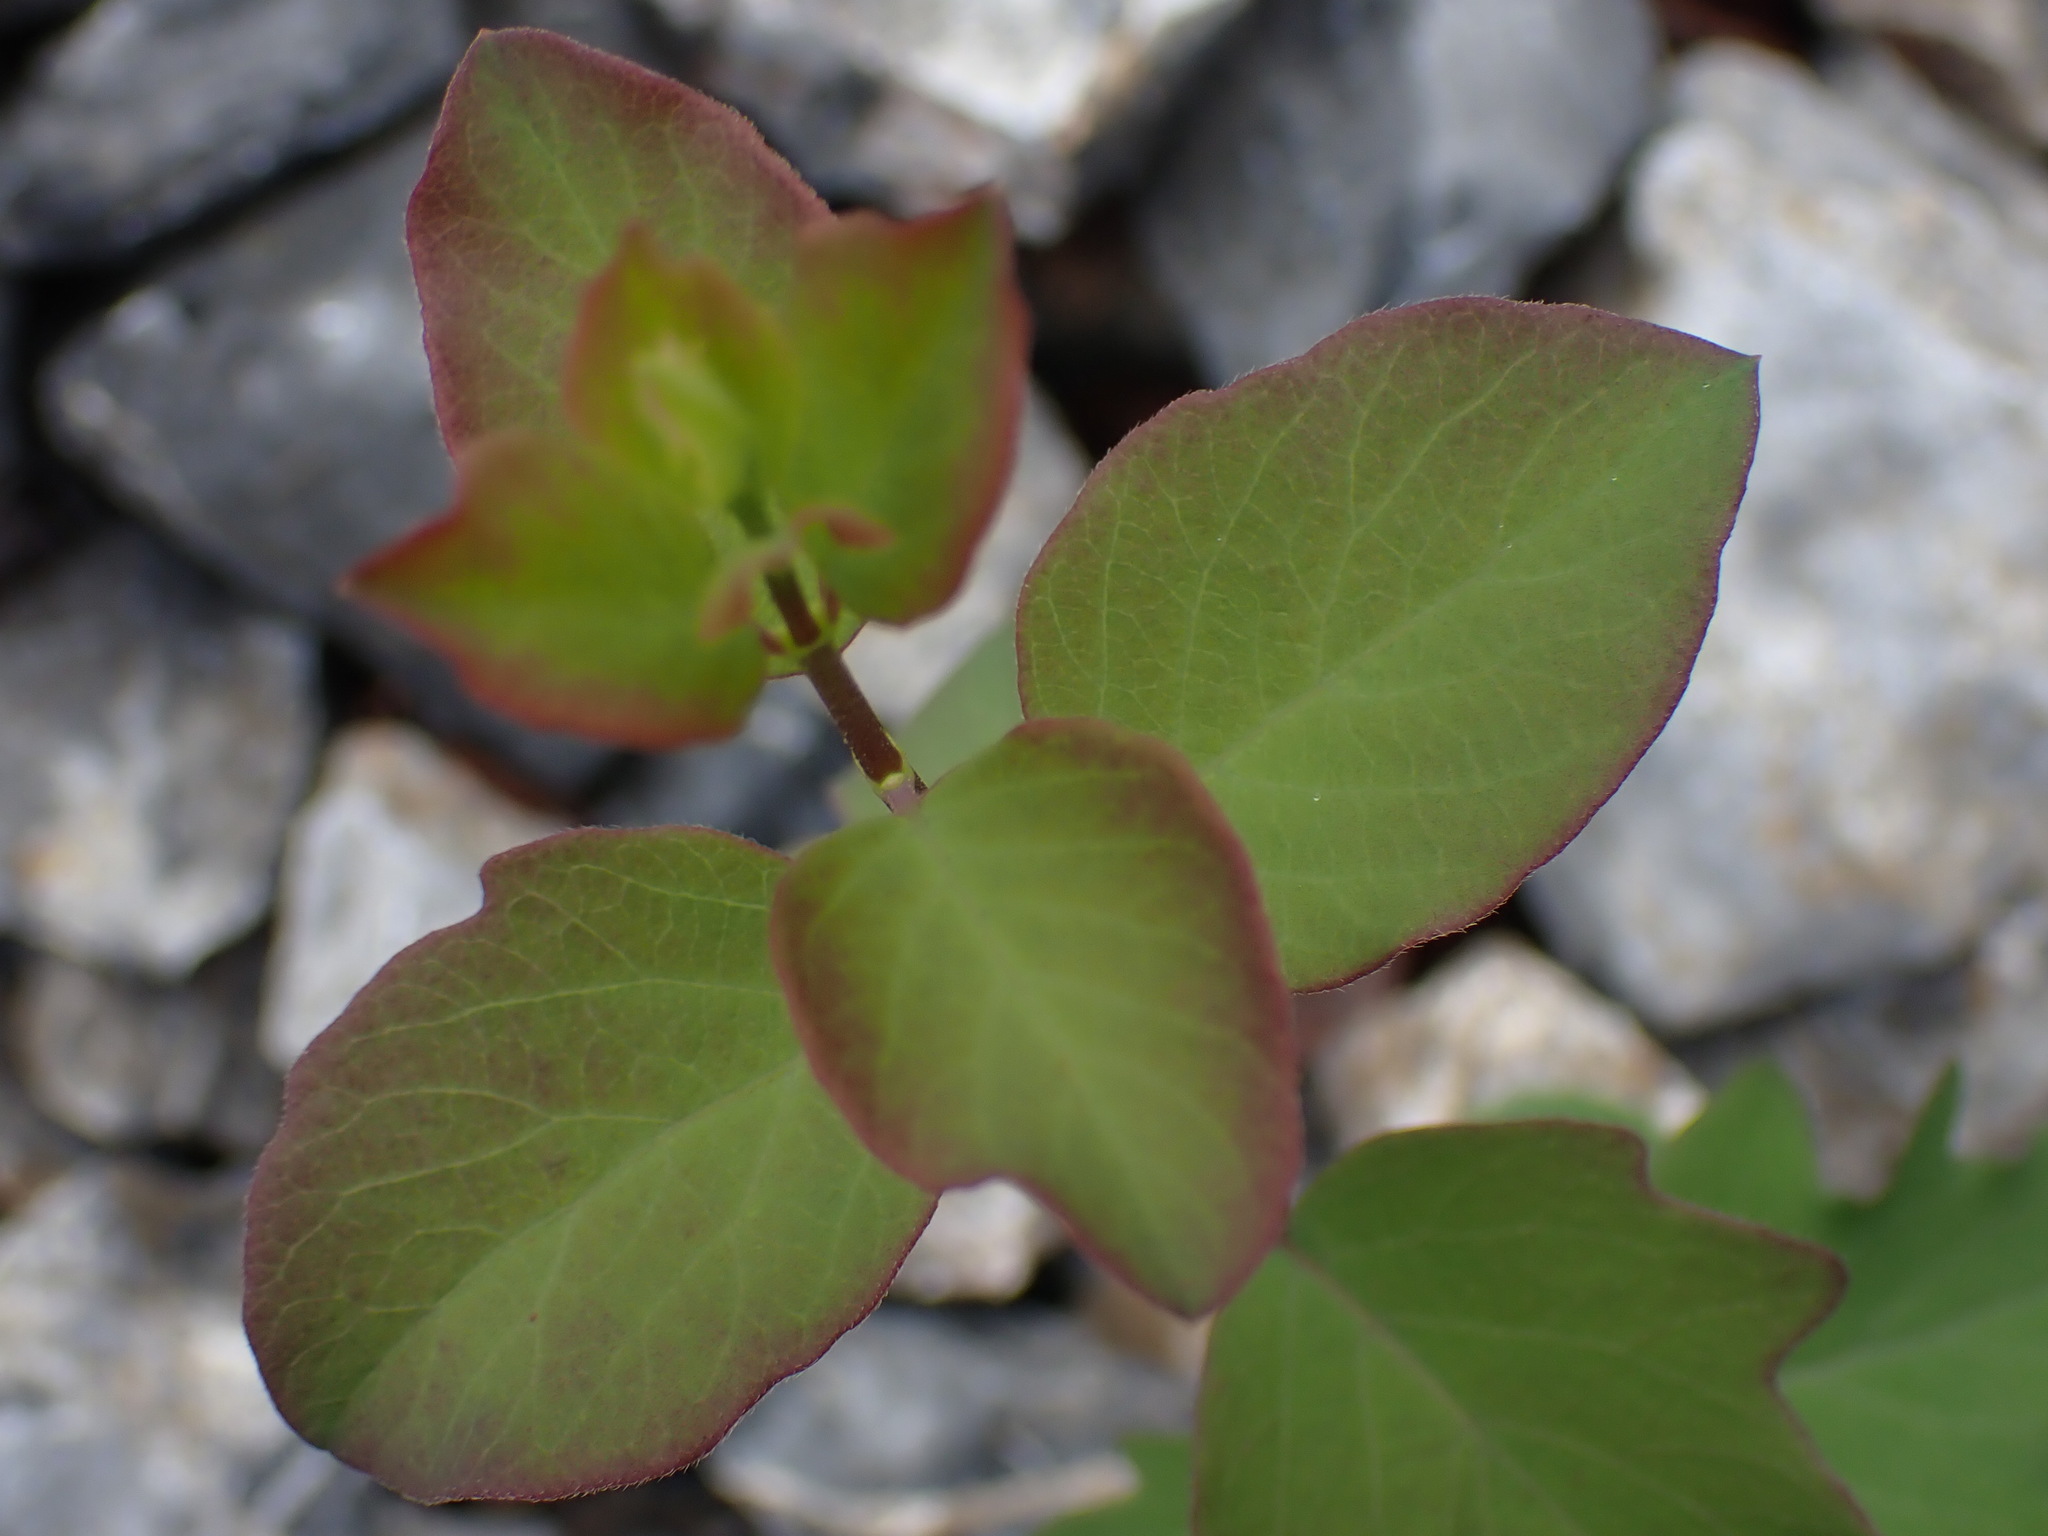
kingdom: Plantae
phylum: Tracheophyta
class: Magnoliopsida
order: Dipsacales
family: Caprifoliaceae
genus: Symphoricarpos
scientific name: Symphoricarpos albus
